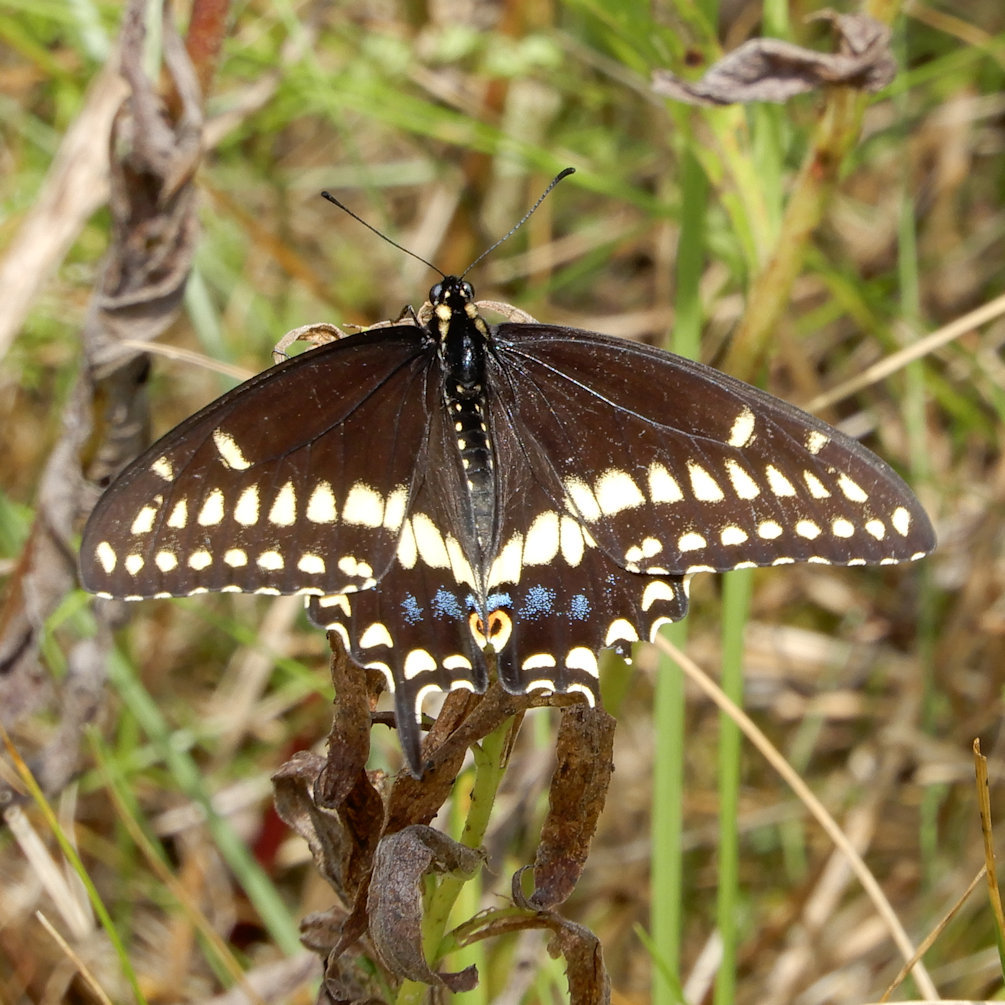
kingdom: Animalia
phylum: Arthropoda
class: Insecta
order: Lepidoptera
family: Papilionidae
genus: Papilio
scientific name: Papilio polyxenes
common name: Black swallowtail
